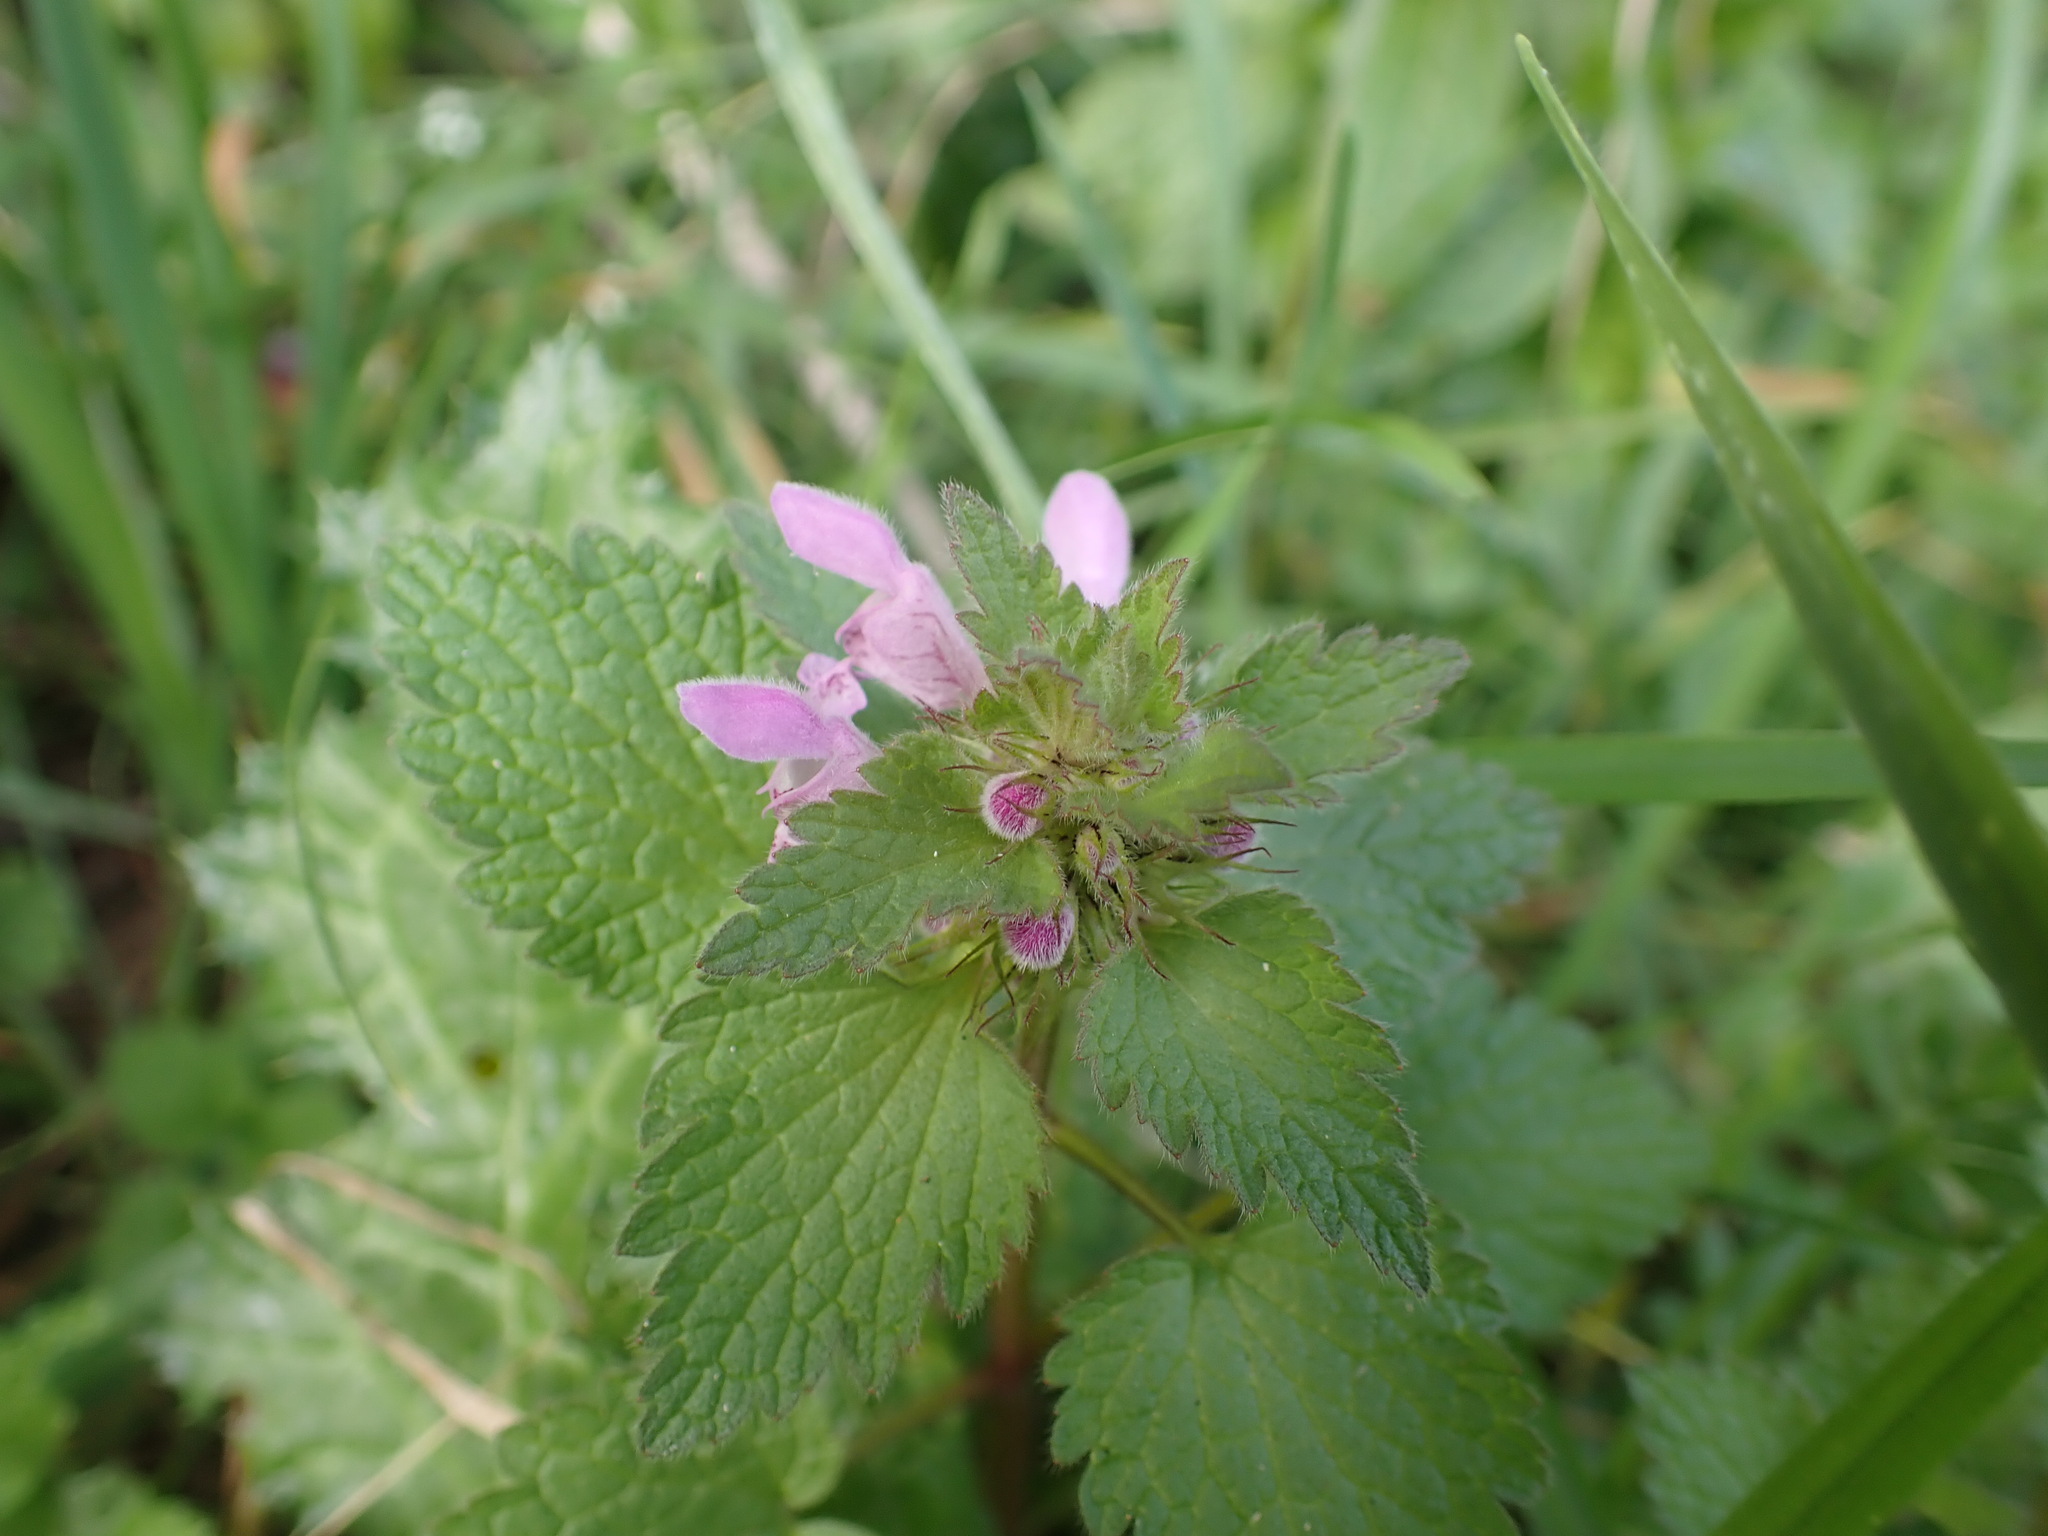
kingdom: Plantae
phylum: Tracheophyta
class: Magnoliopsida
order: Lamiales
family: Lamiaceae
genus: Lamium
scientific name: Lamium purpureum
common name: Red dead-nettle
